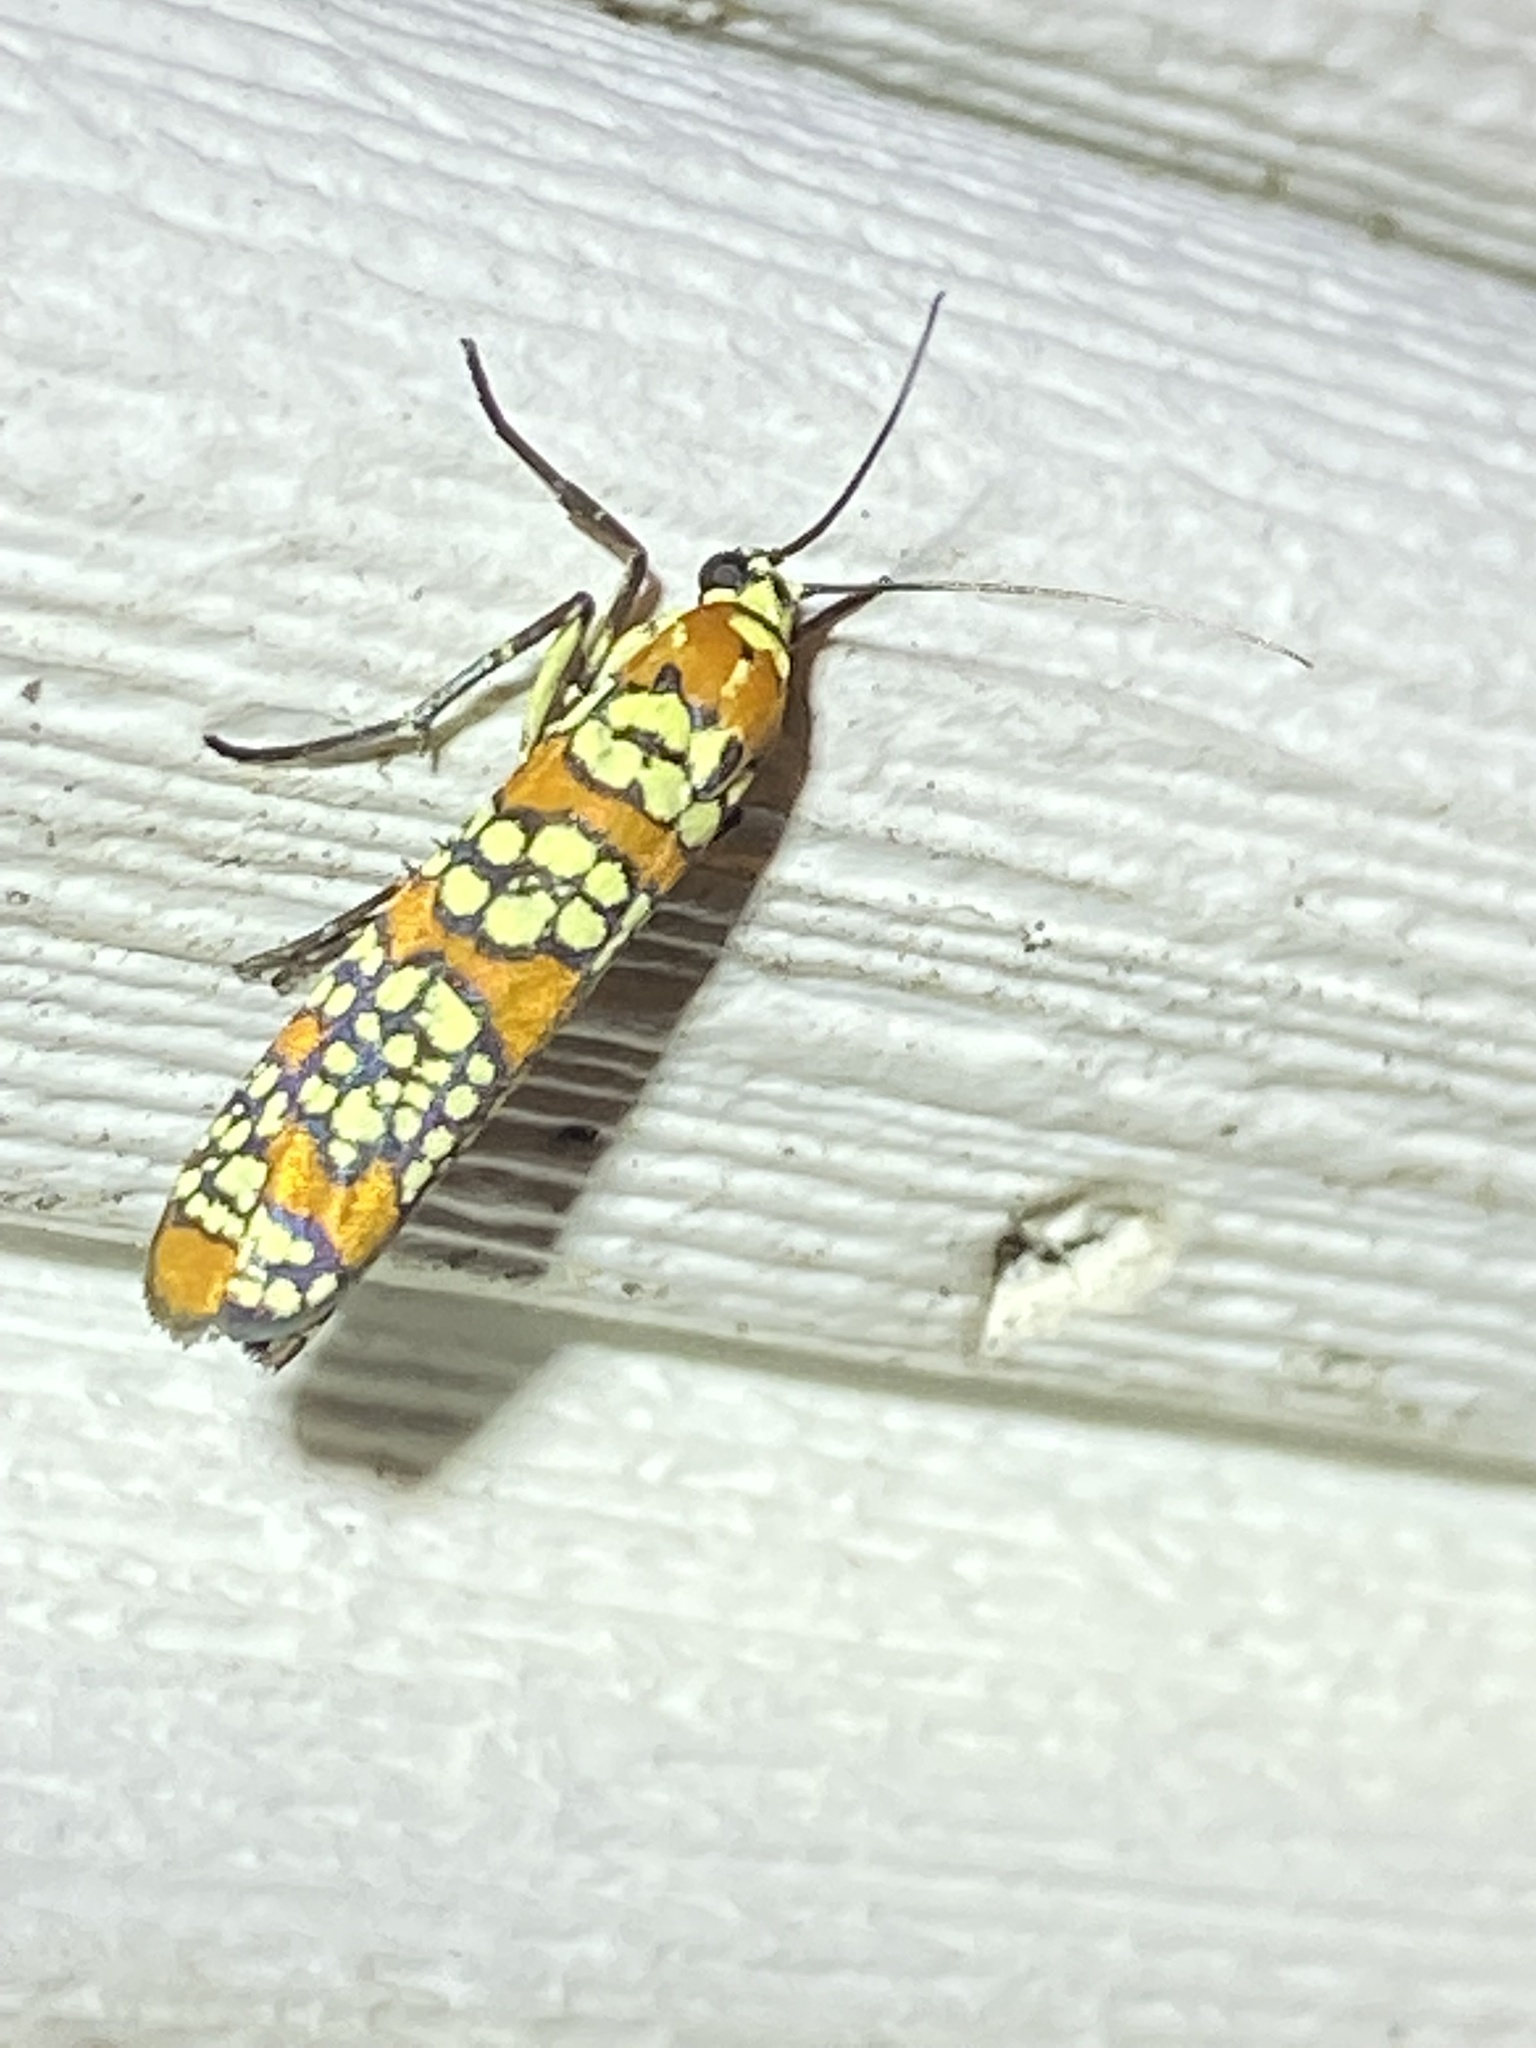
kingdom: Animalia
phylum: Arthropoda
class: Insecta
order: Lepidoptera
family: Attevidae
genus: Atteva
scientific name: Atteva punctella
